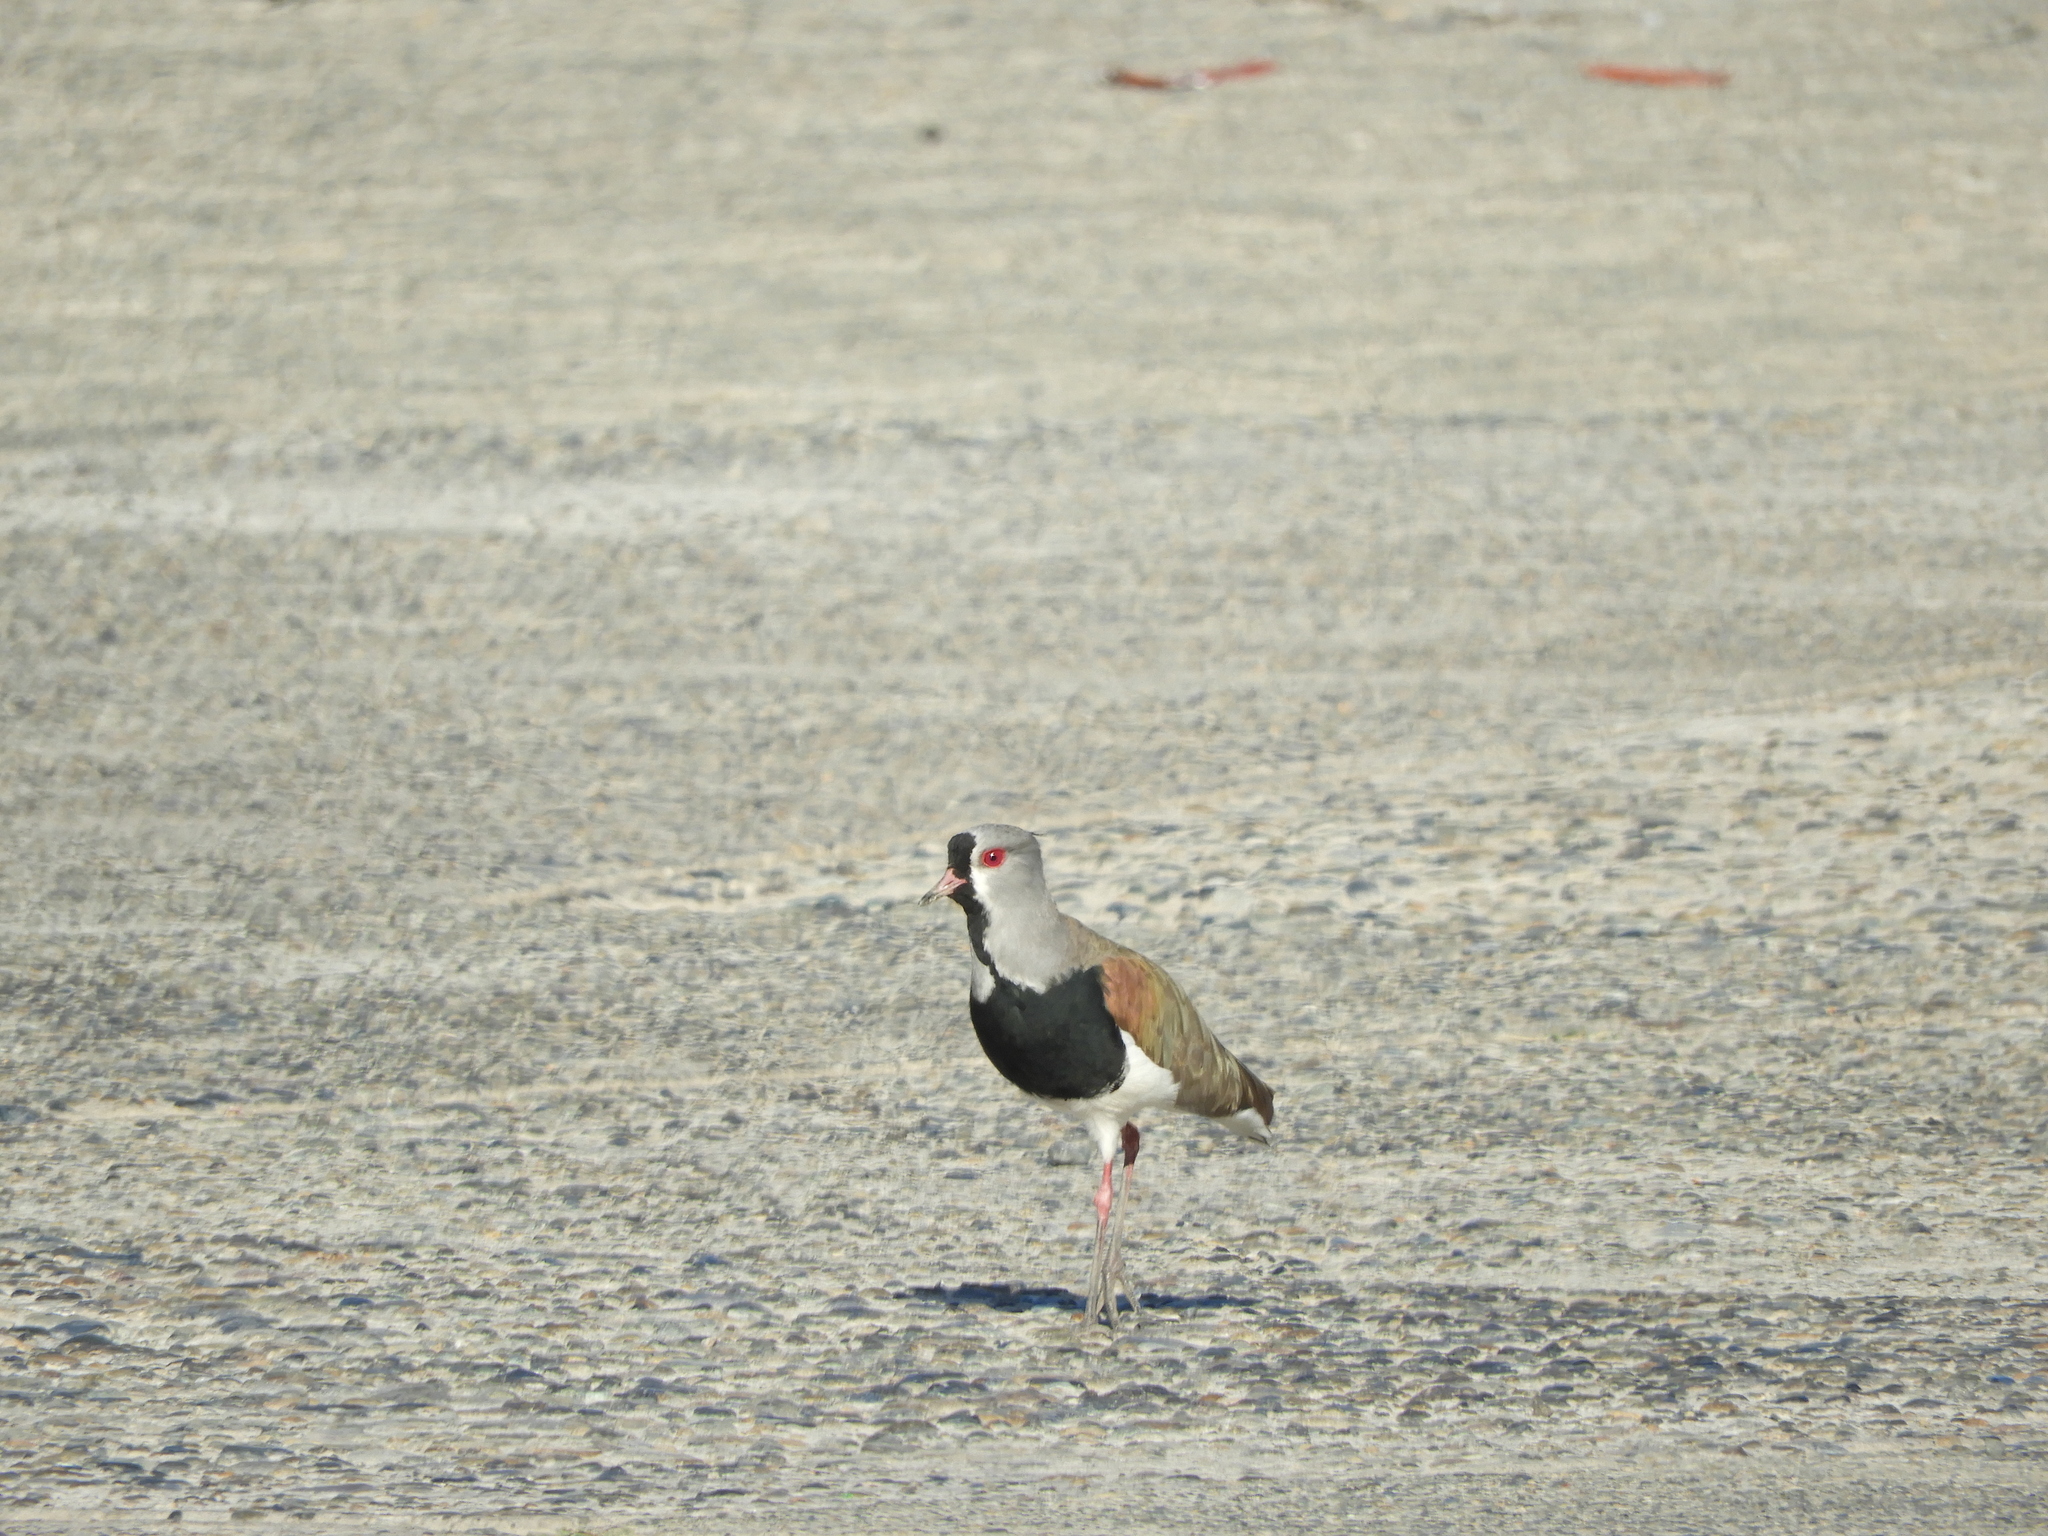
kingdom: Animalia
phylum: Chordata
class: Aves
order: Charadriiformes
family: Charadriidae
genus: Vanellus
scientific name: Vanellus chilensis
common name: Southern lapwing
